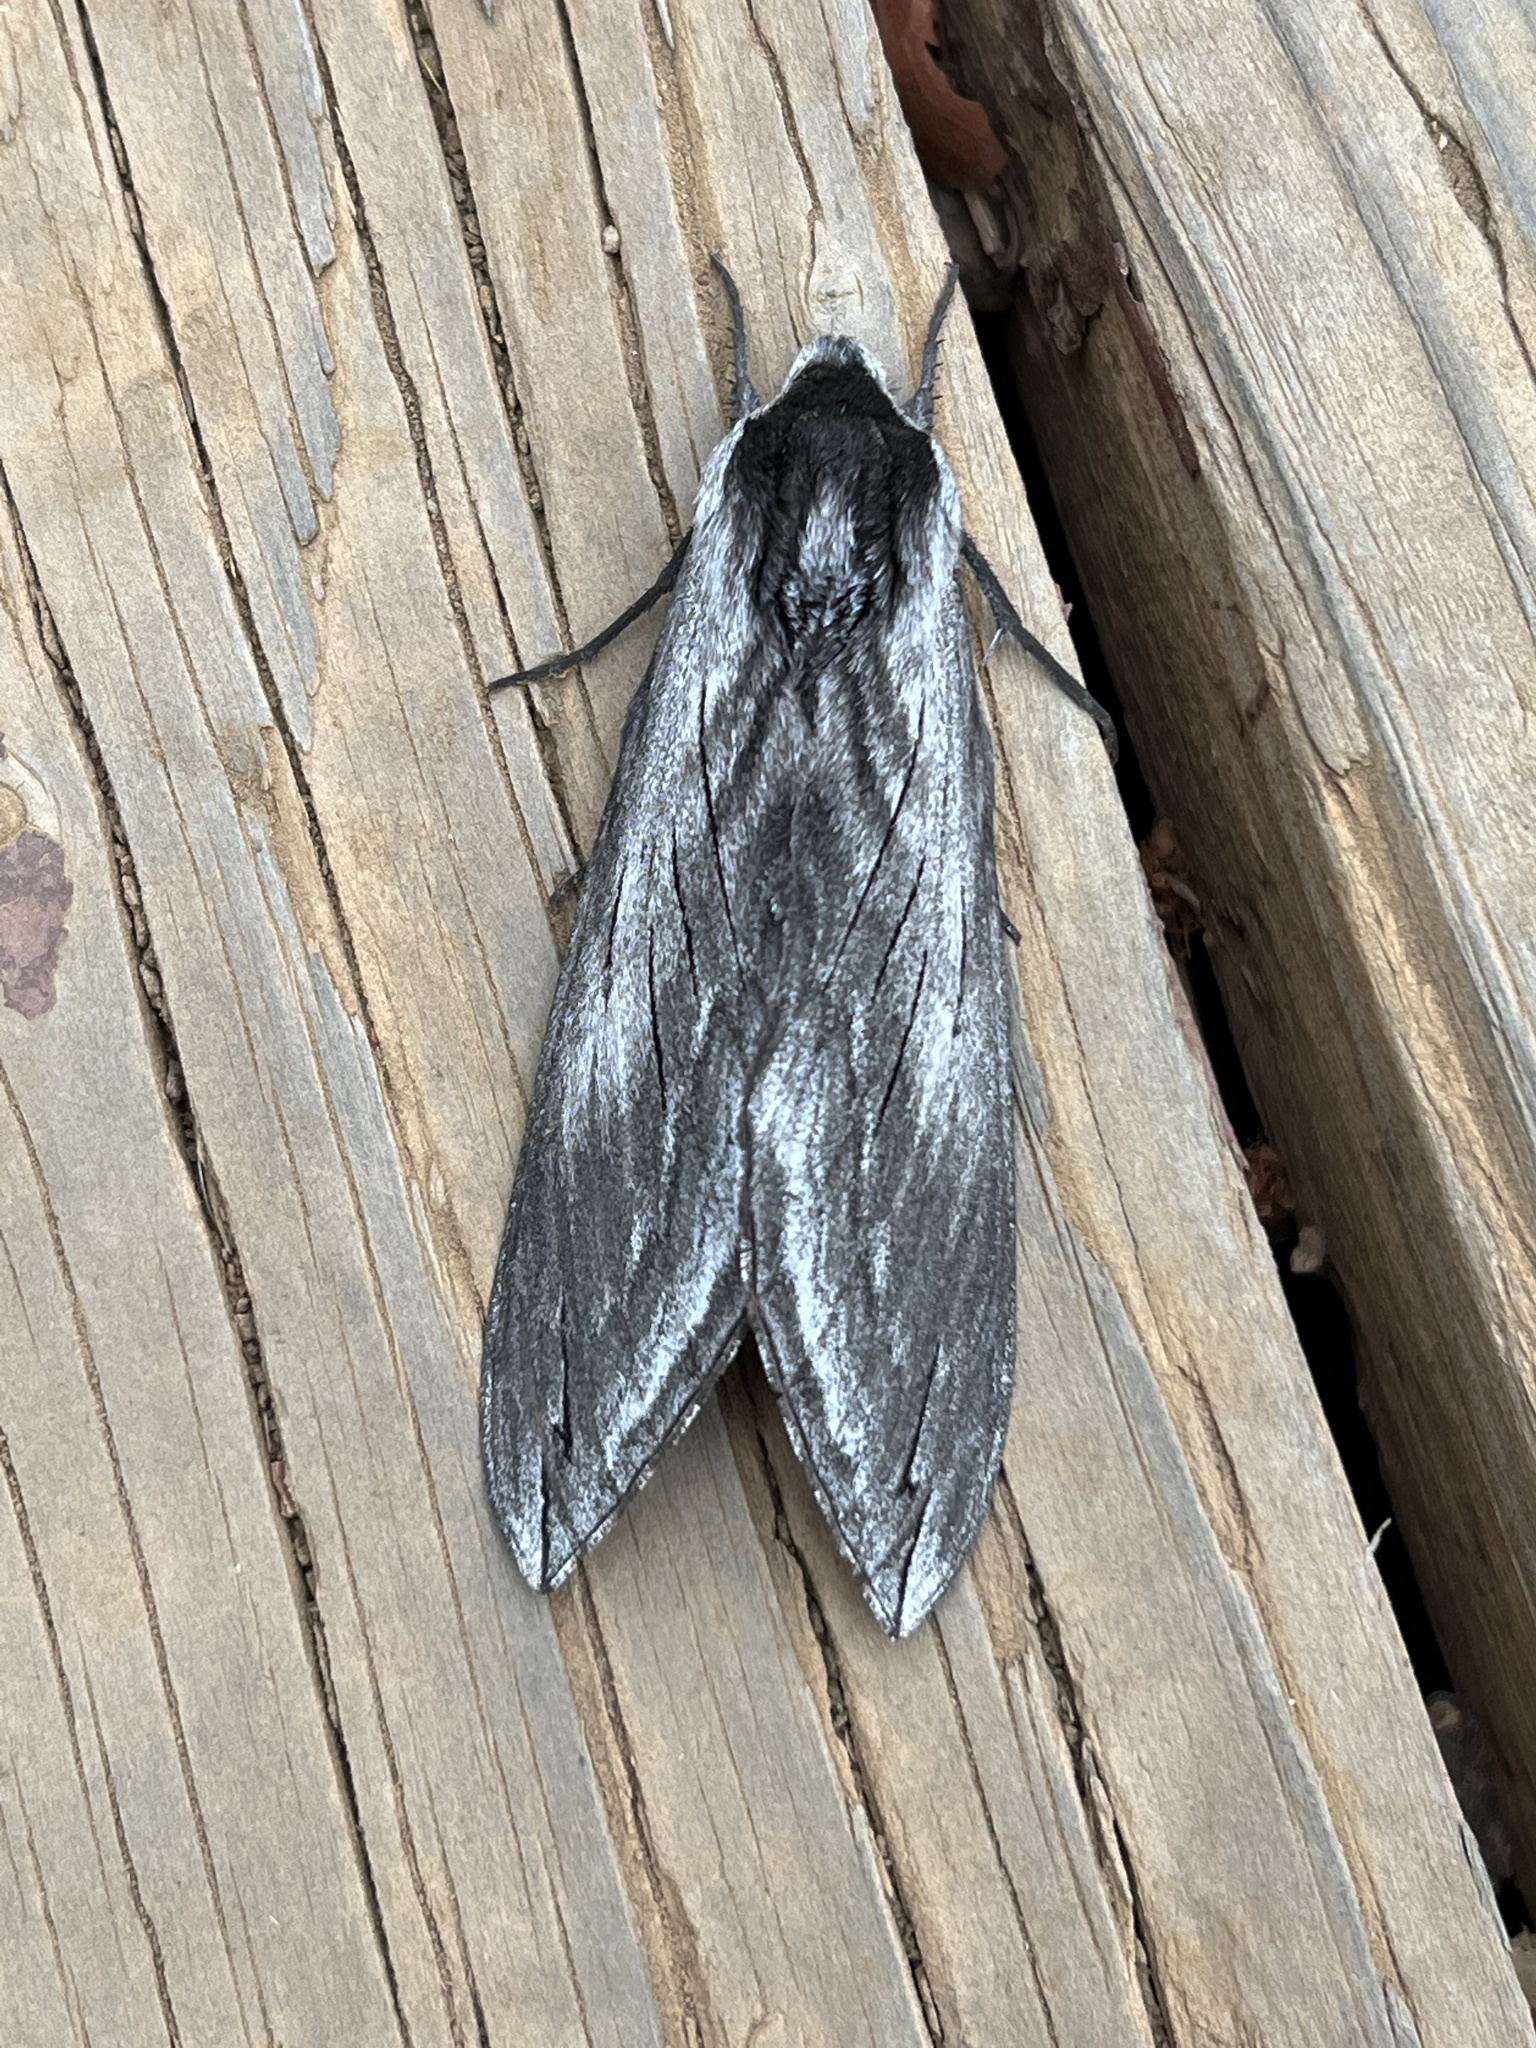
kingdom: Animalia
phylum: Arthropoda
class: Insecta
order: Lepidoptera
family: Sphingidae
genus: Sphinx
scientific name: Sphinx perelegans
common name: Elegant sphinx
